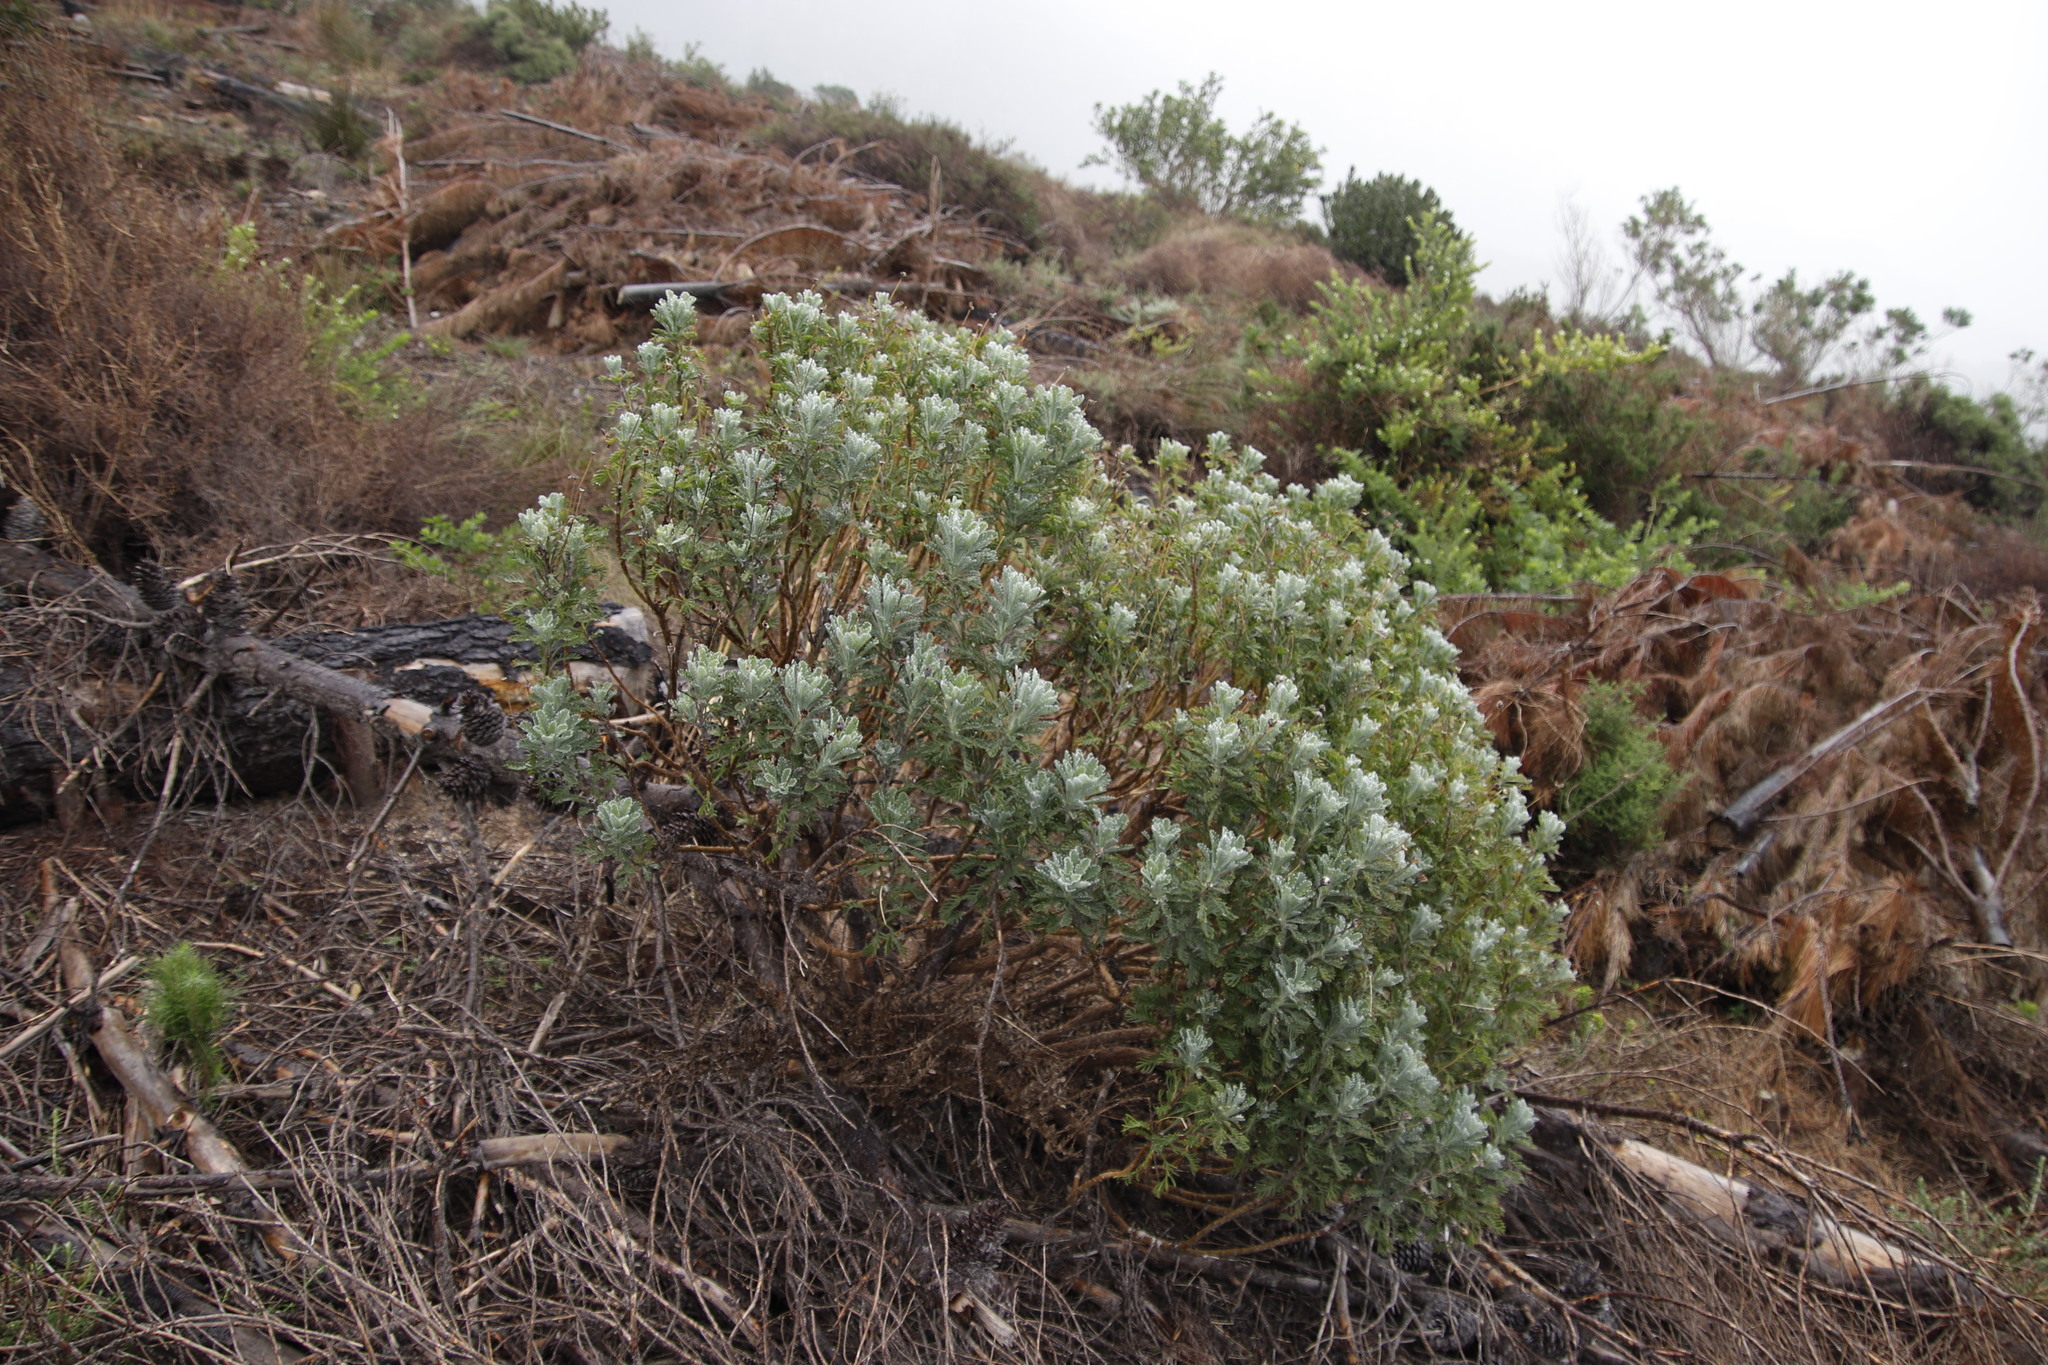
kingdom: Plantae
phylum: Tracheophyta
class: Magnoliopsida
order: Asterales
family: Asteraceae
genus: Euryops
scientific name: Euryops pectinatus
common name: Gray-leaf euryops
